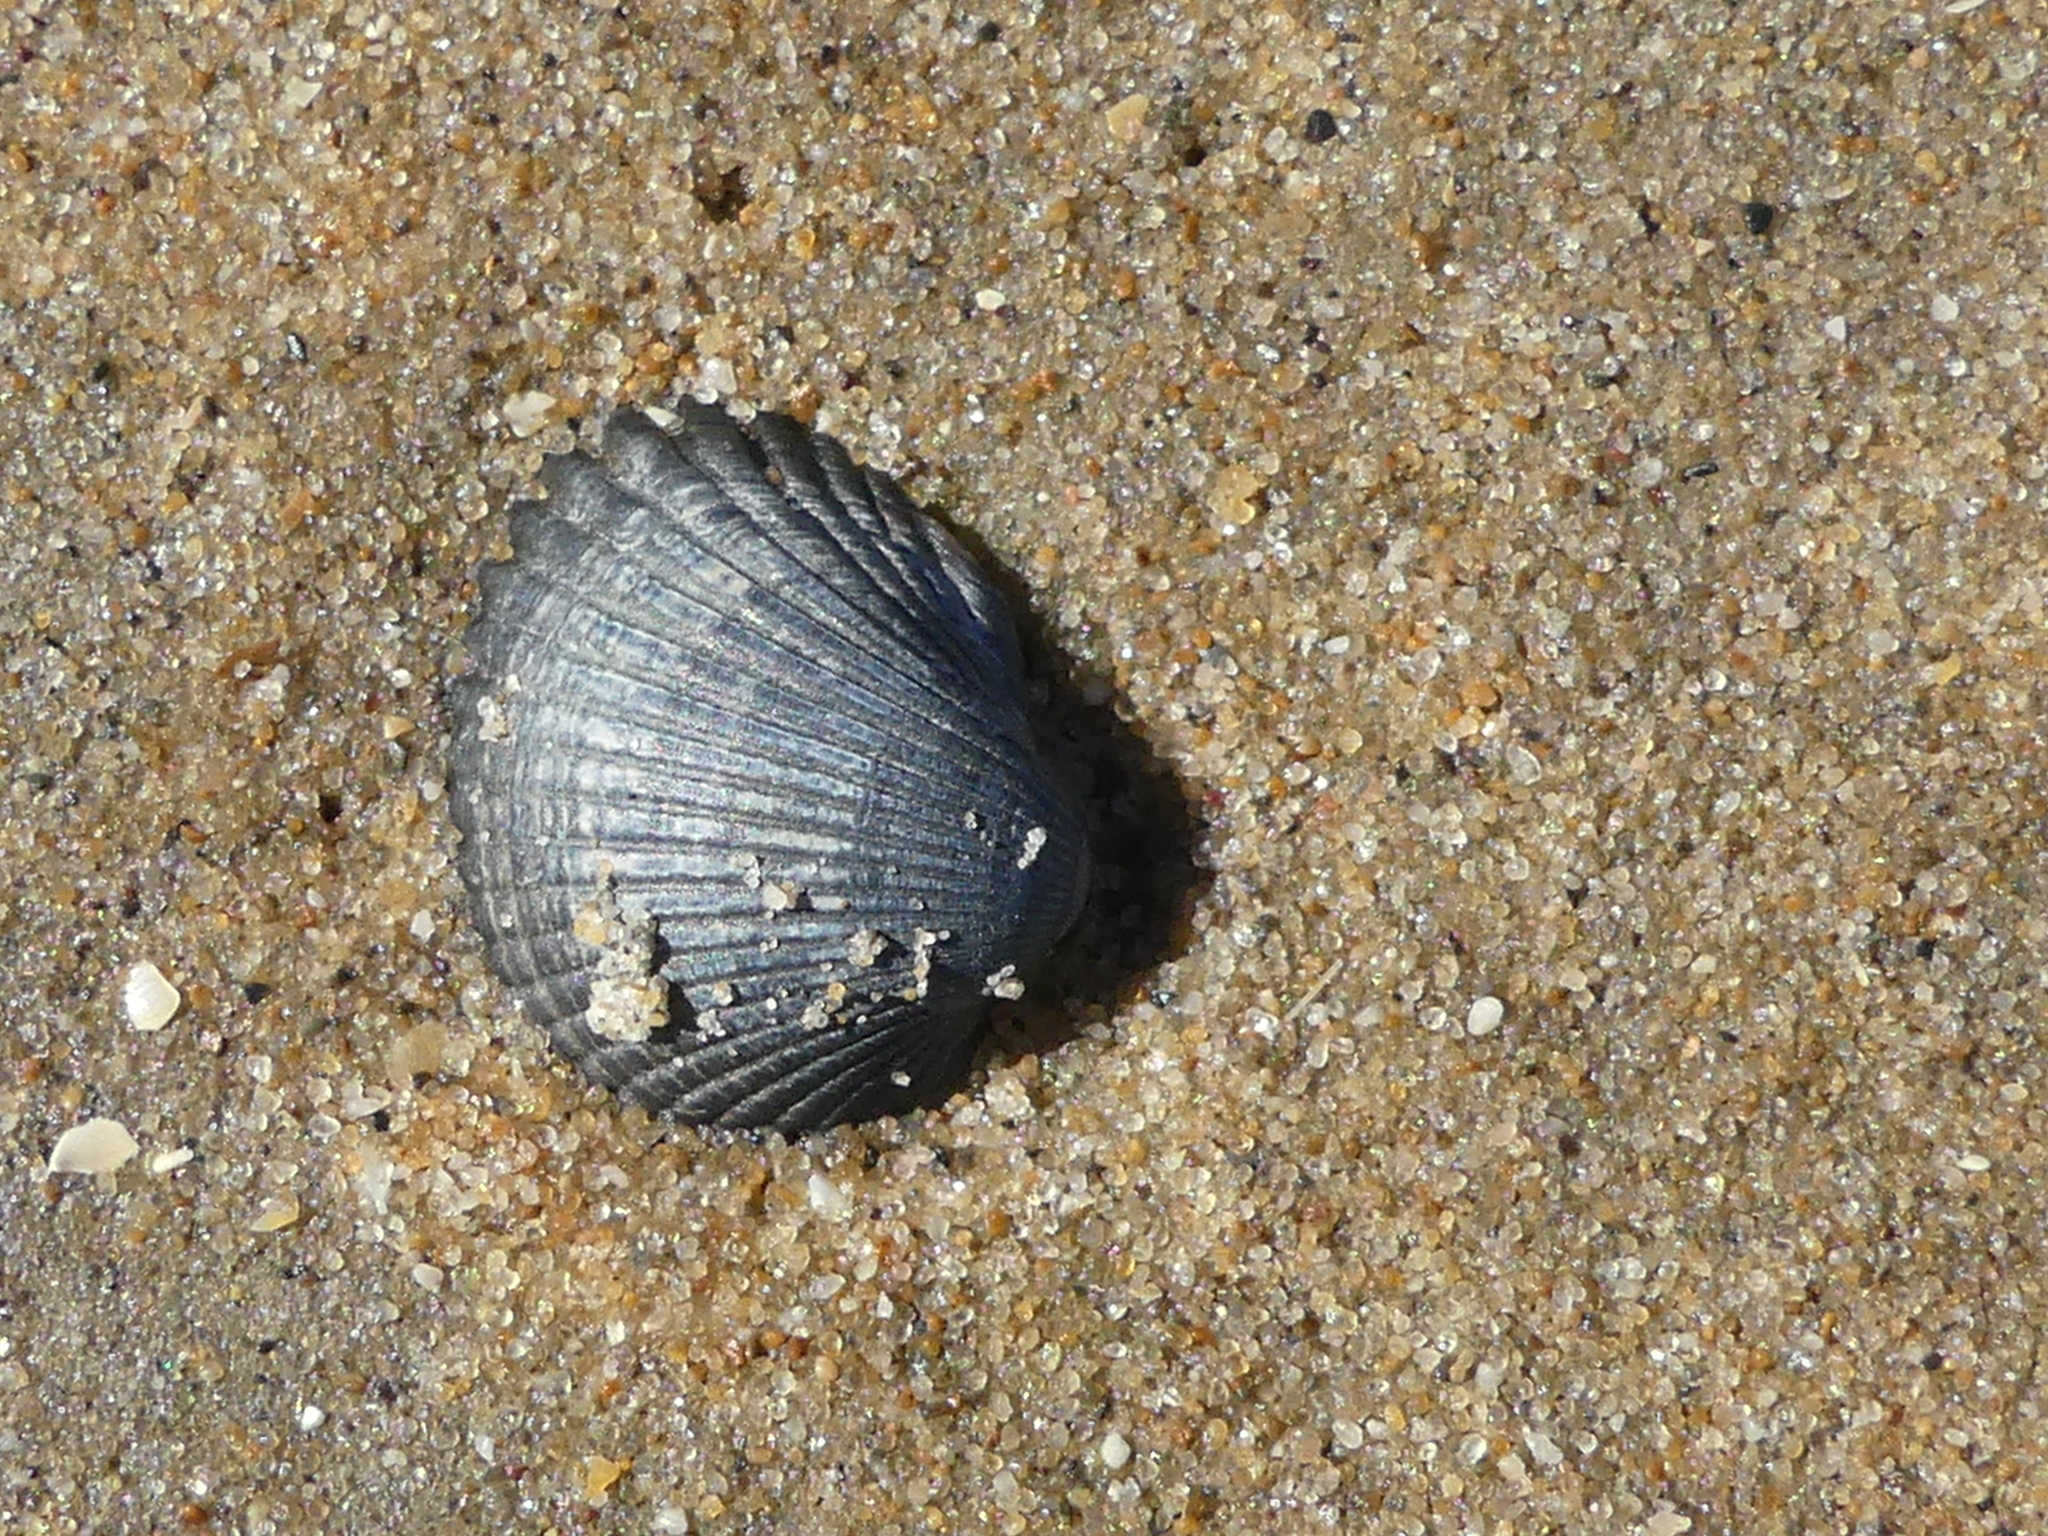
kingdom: Animalia
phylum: Mollusca
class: Bivalvia
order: Cardiida
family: Cardiidae
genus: Cerastoderma
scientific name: Cerastoderma edule
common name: Common cockle
